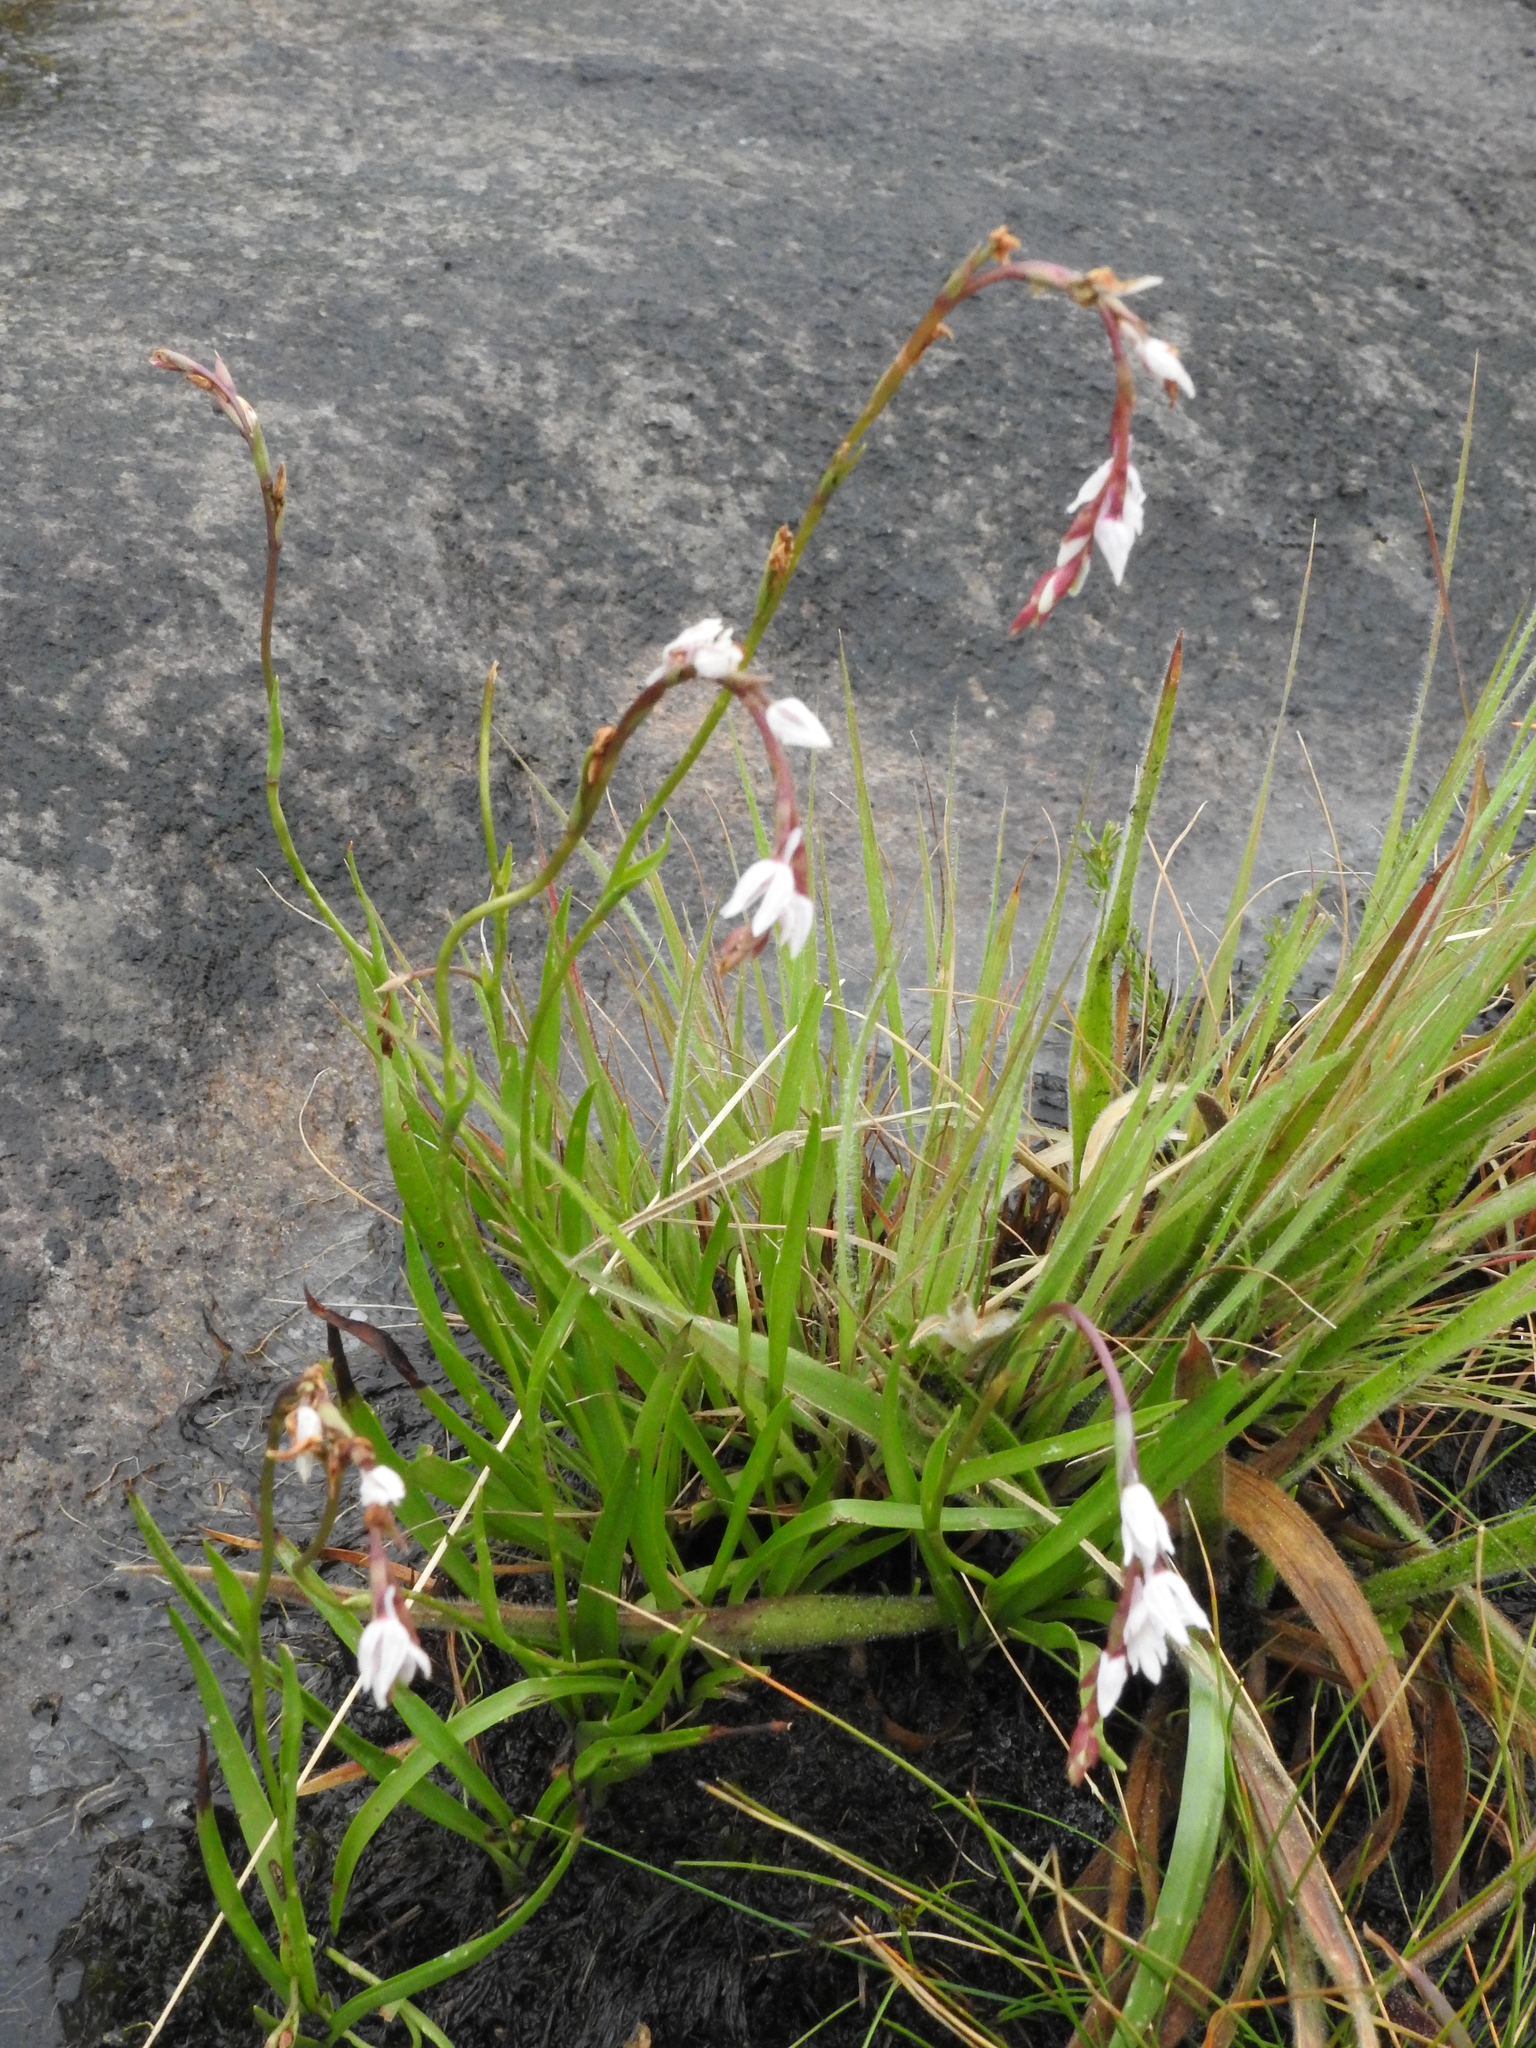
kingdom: Plantae
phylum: Tracheophyta
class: Liliopsida
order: Asparagales
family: Orchidaceae
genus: Schizochilus
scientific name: Schizochilus crenulatus
